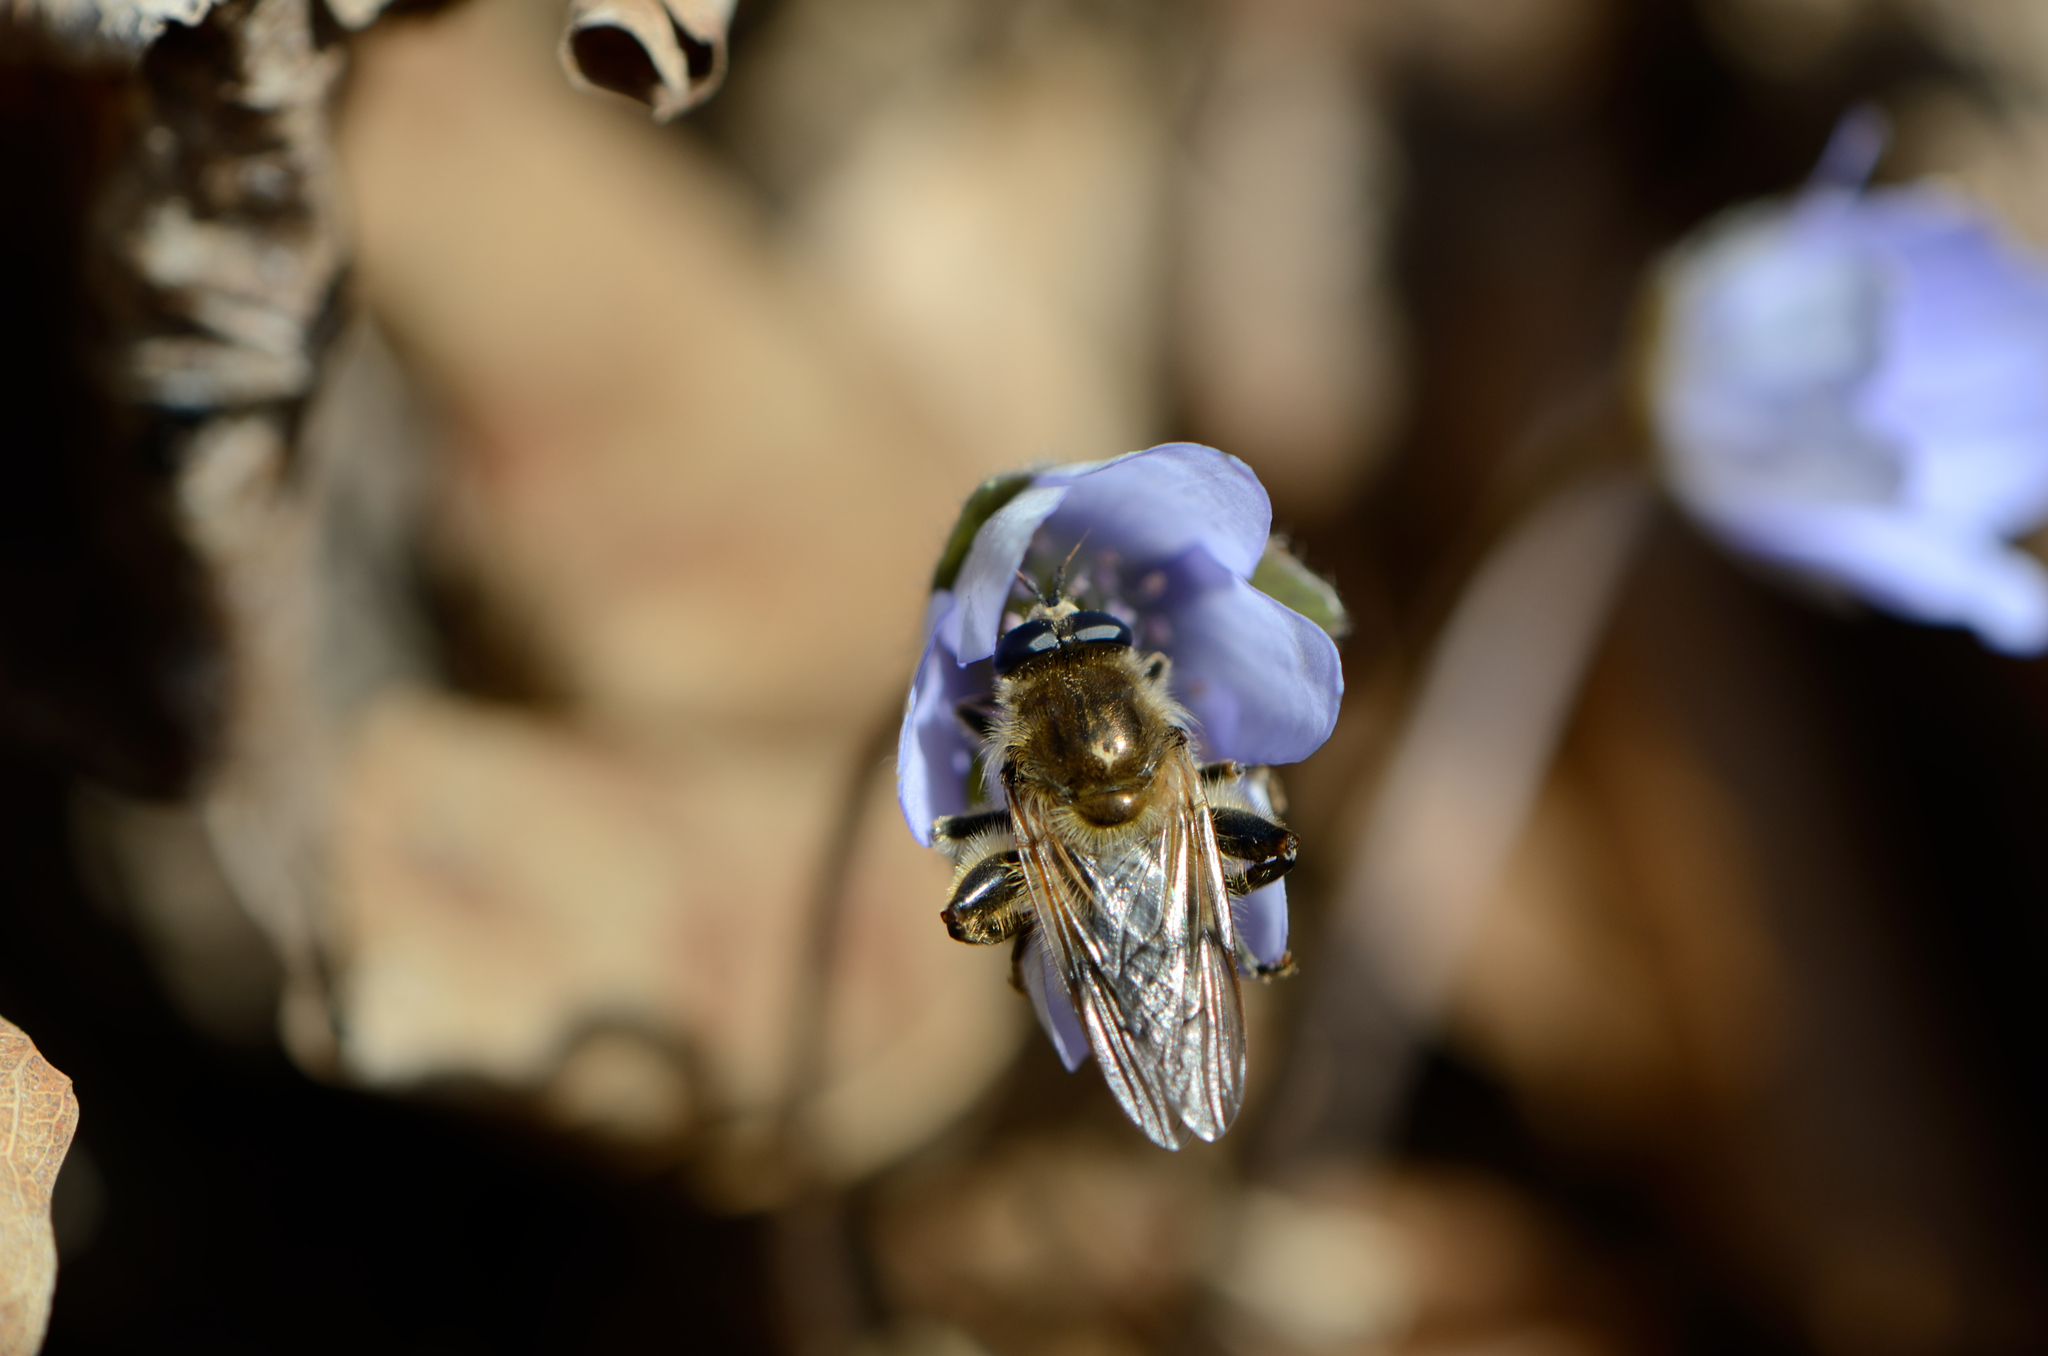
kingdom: Animalia
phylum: Arthropoda
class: Insecta
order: Diptera
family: Syrphidae
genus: Brachypalpus
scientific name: Brachypalpus valgus
